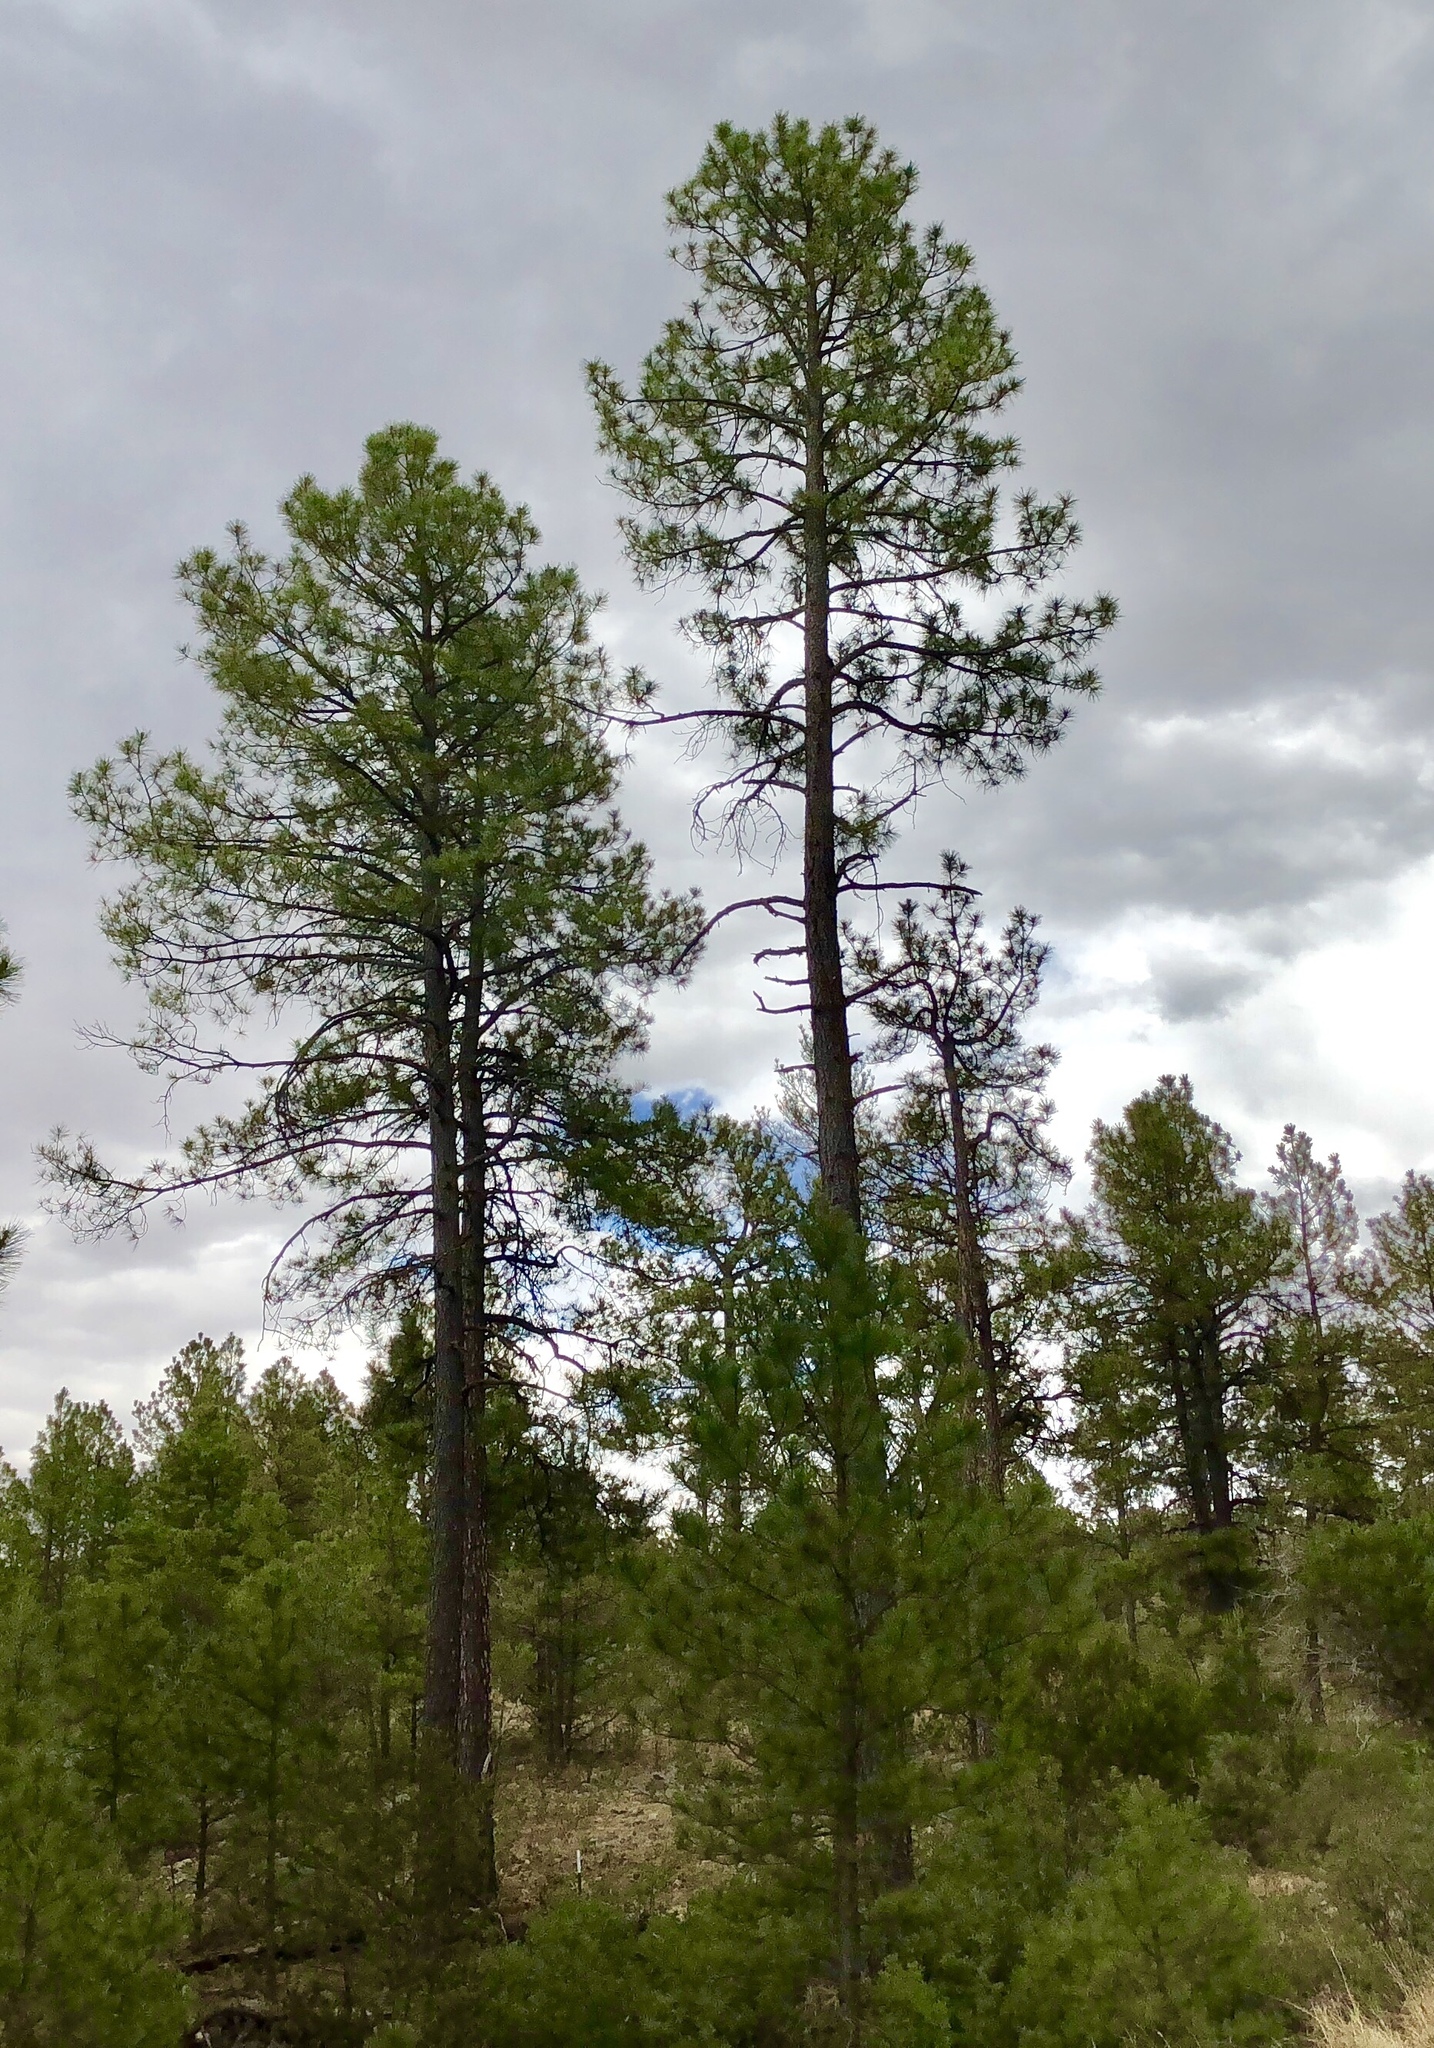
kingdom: Plantae
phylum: Tracheophyta
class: Pinopsida
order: Pinales
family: Pinaceae
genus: Pinus
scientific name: Pinus ponderosa
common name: Western yellow-pine
